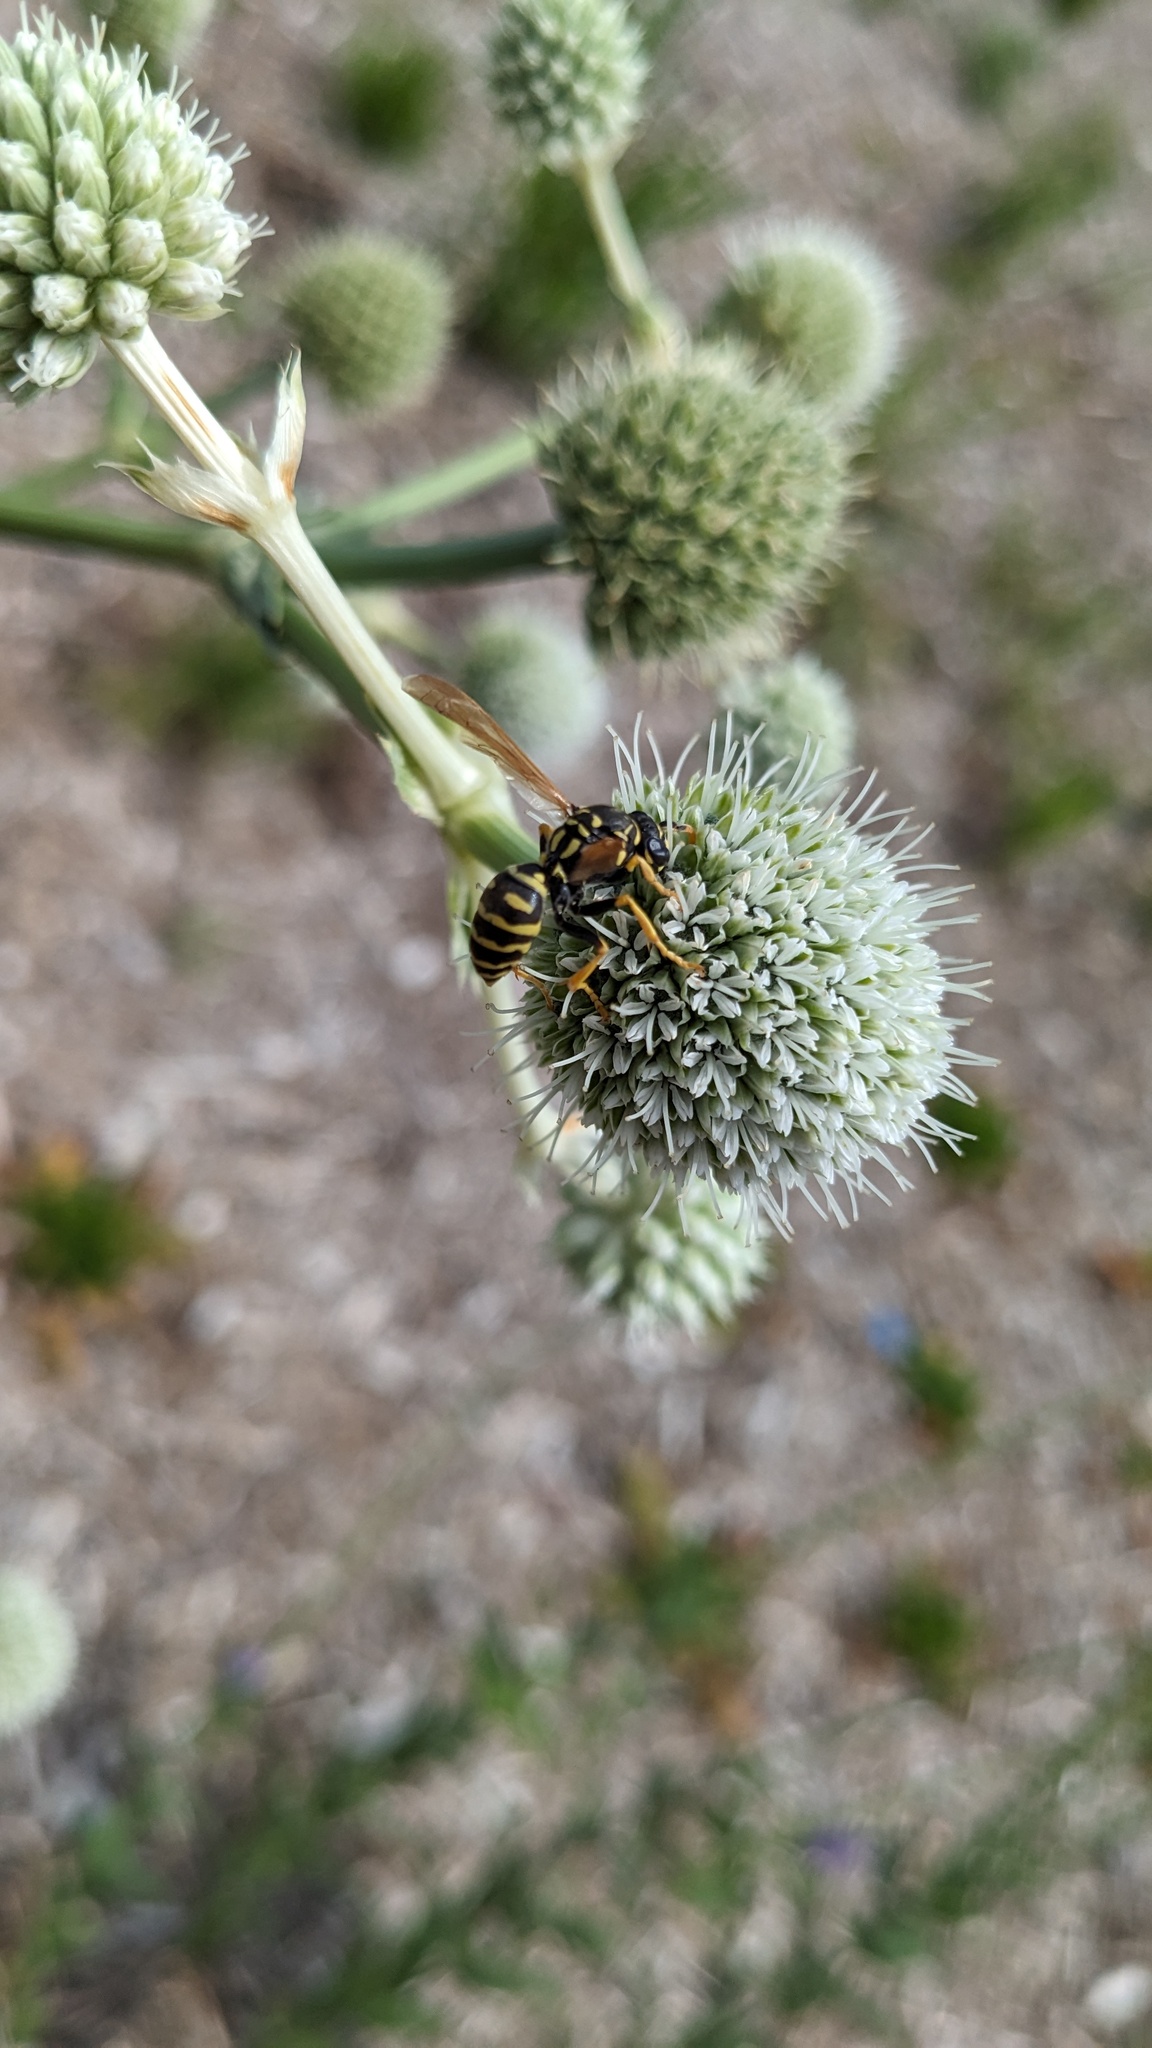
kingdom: Animalia
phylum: Arthropoda
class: Insecta
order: Hymenoptera
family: Eumenidae
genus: Polistes
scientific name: Polistes dominula
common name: Paper wasp
